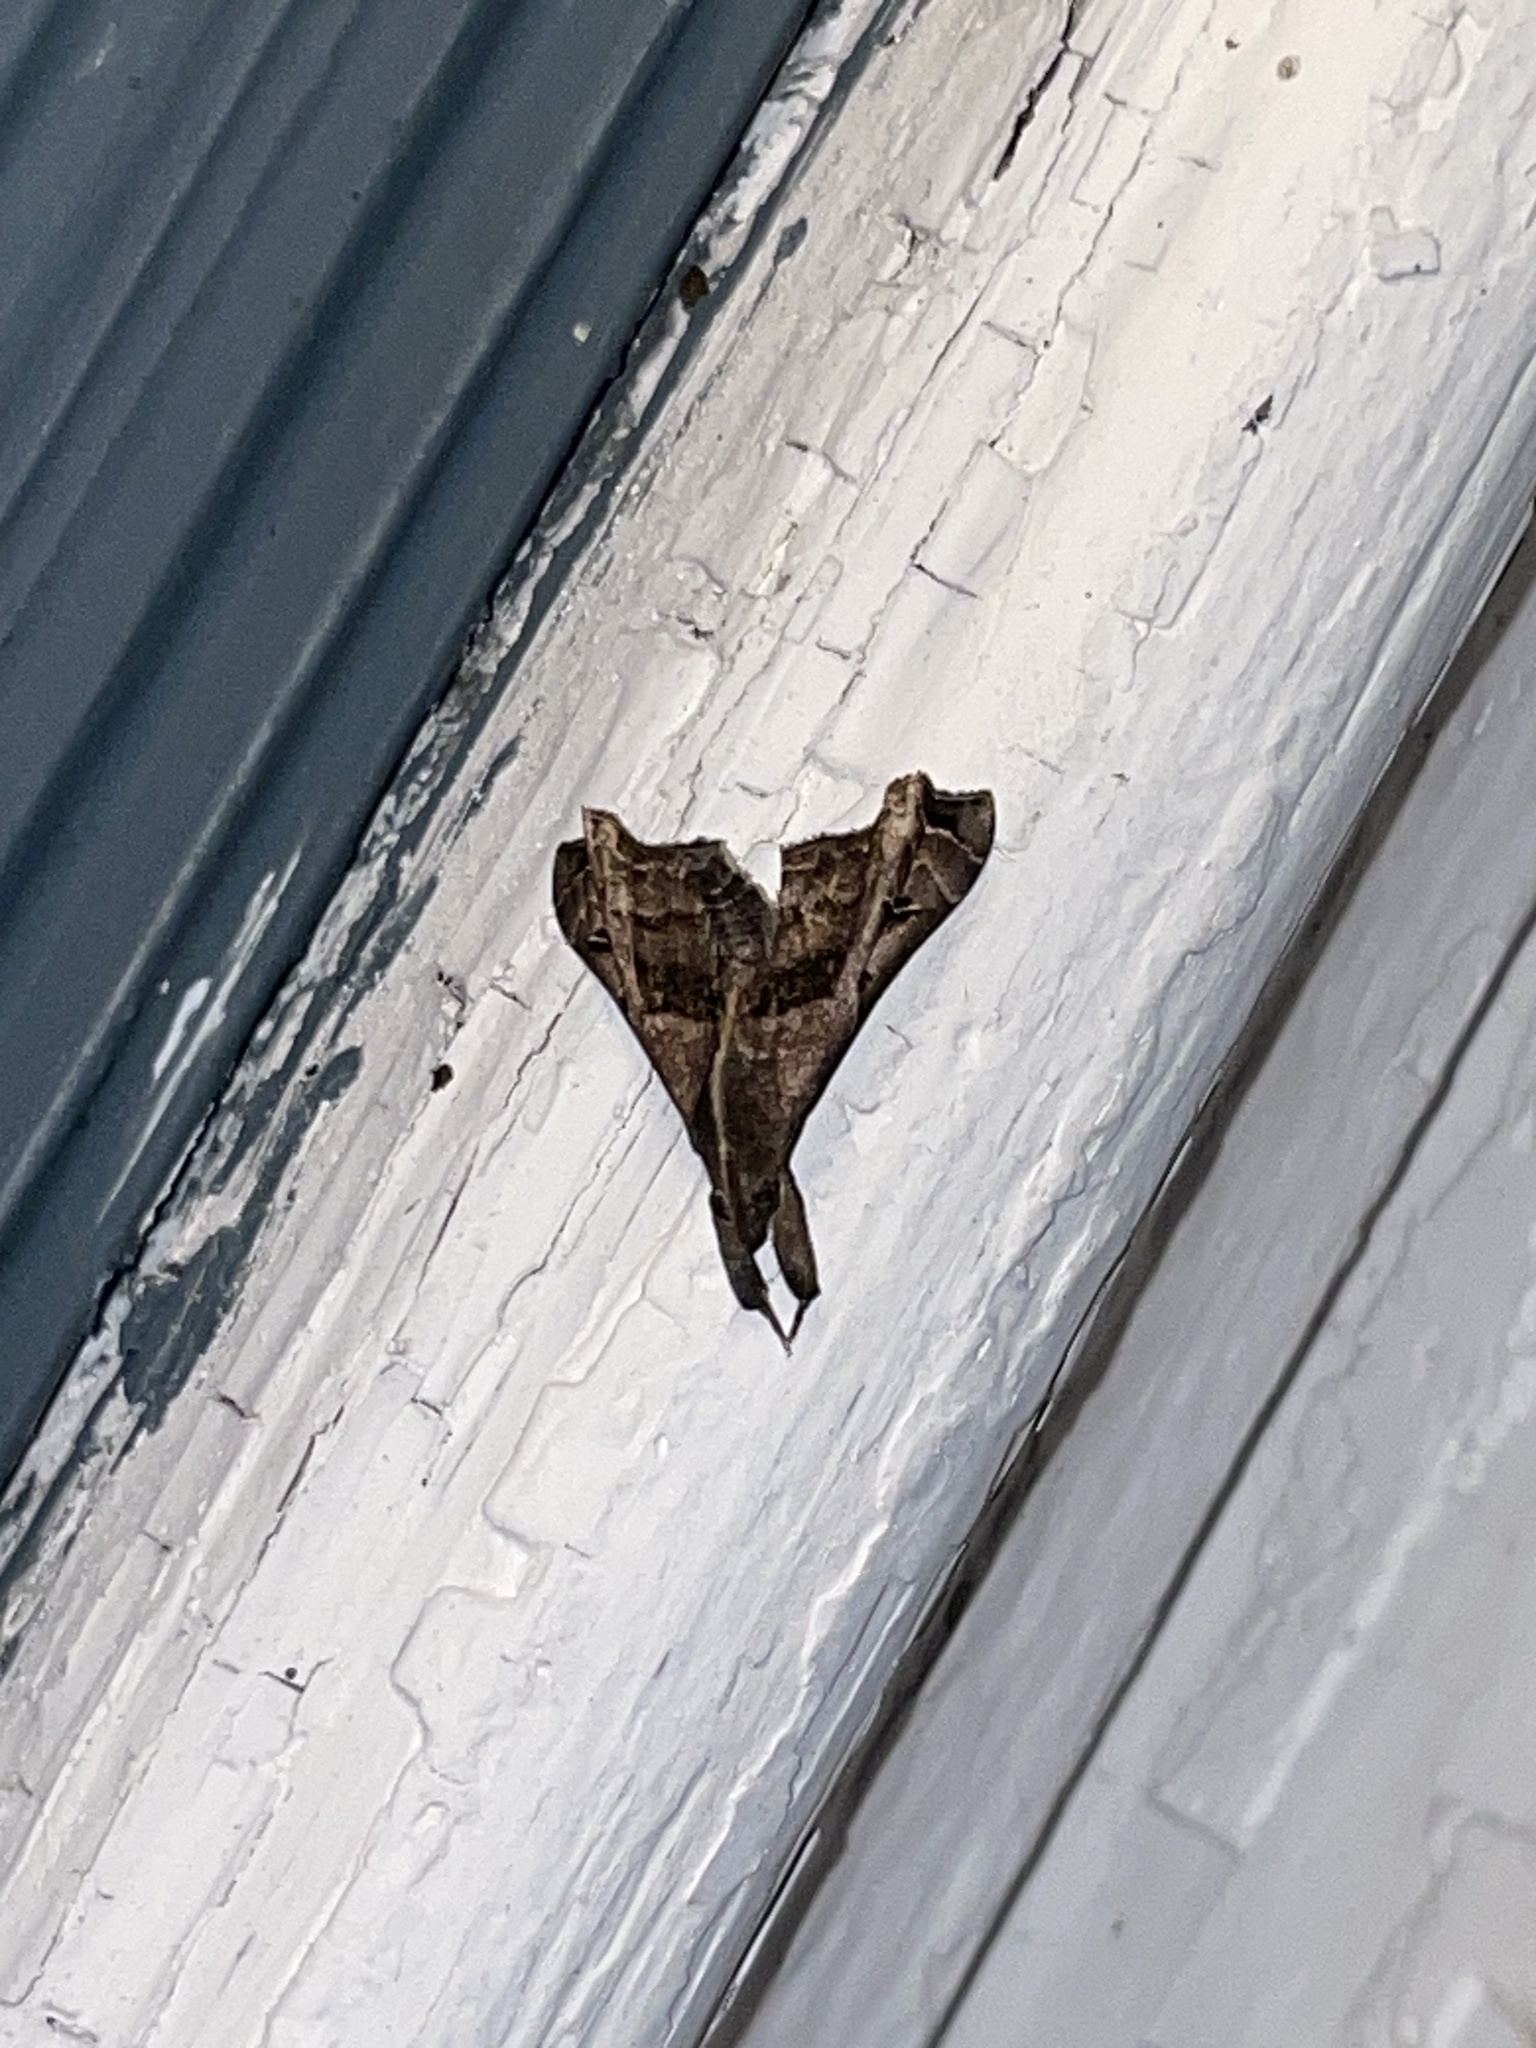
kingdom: Animalia
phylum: Arthropoda
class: Insecta
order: Lepidoptera
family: Erebidae
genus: Palthis
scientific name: Palthis asopialis
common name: Faint-spotted palthis moth
